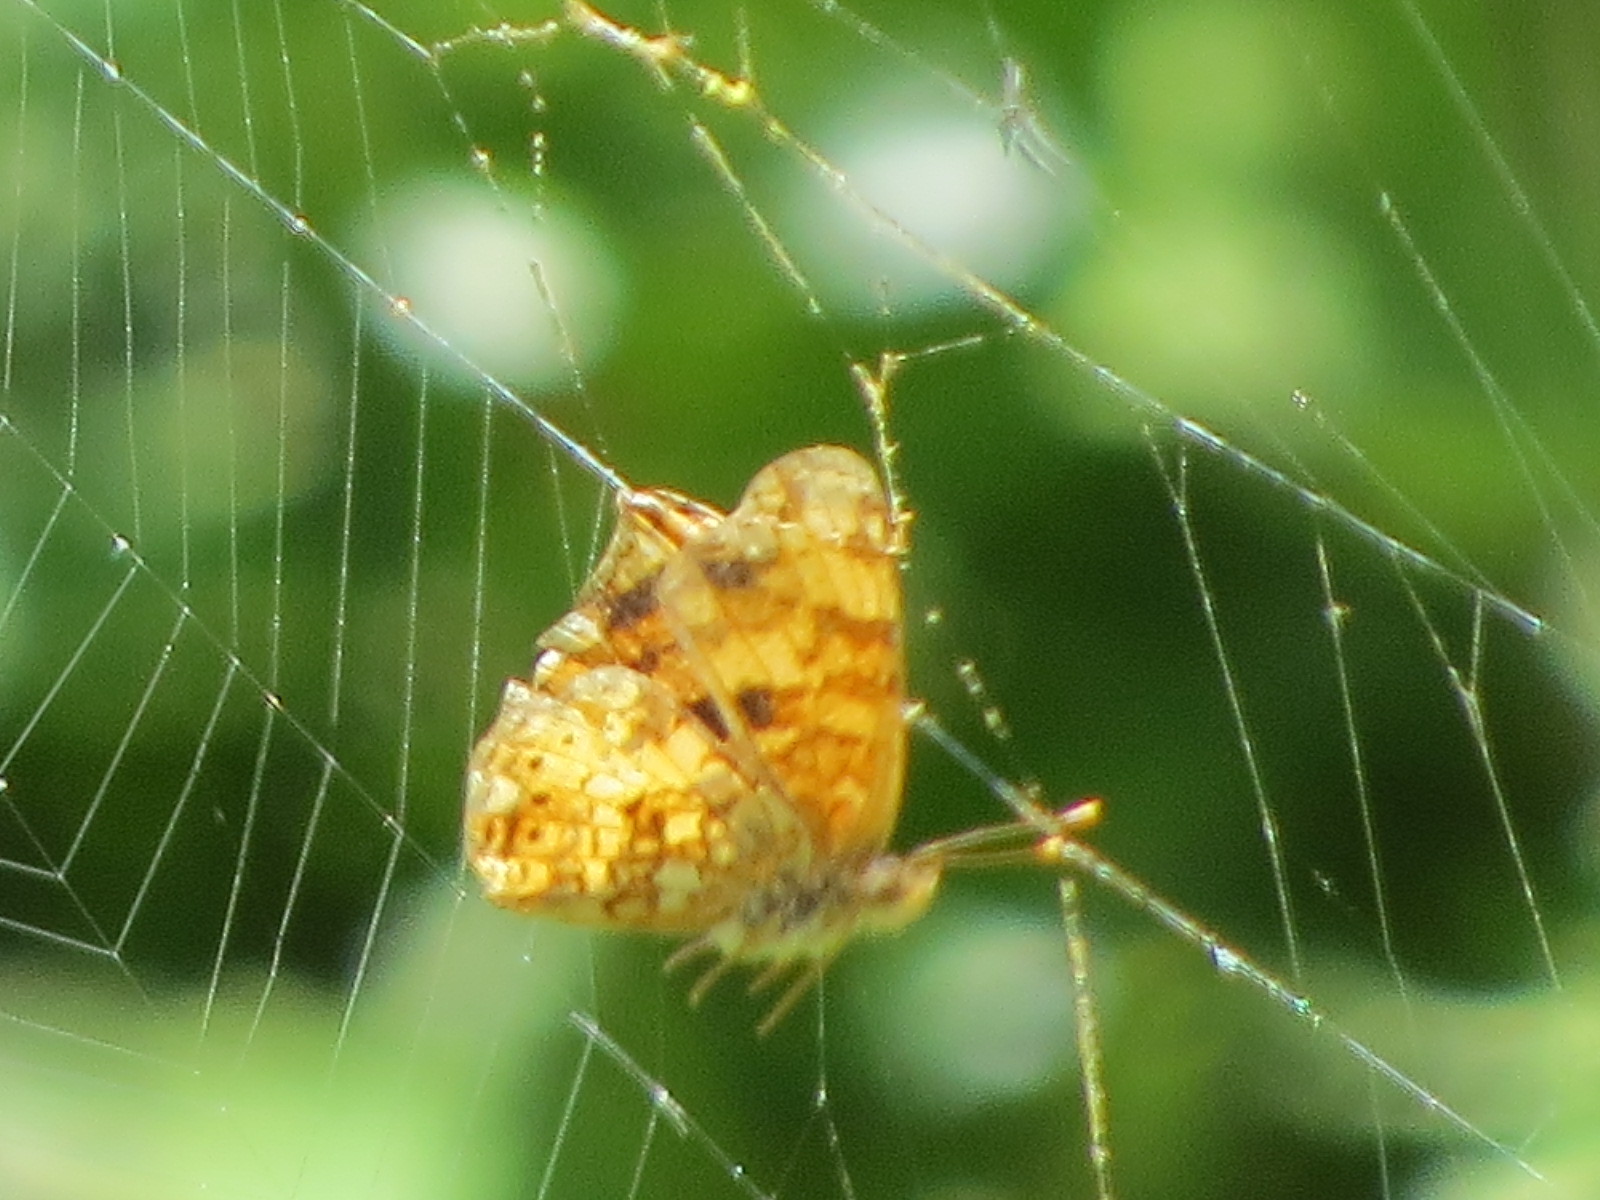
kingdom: Animalia
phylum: Arthropoda
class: Insecta
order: Lepidoptera
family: Nymphalidae
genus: Eresia
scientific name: Eresia aveyrona
